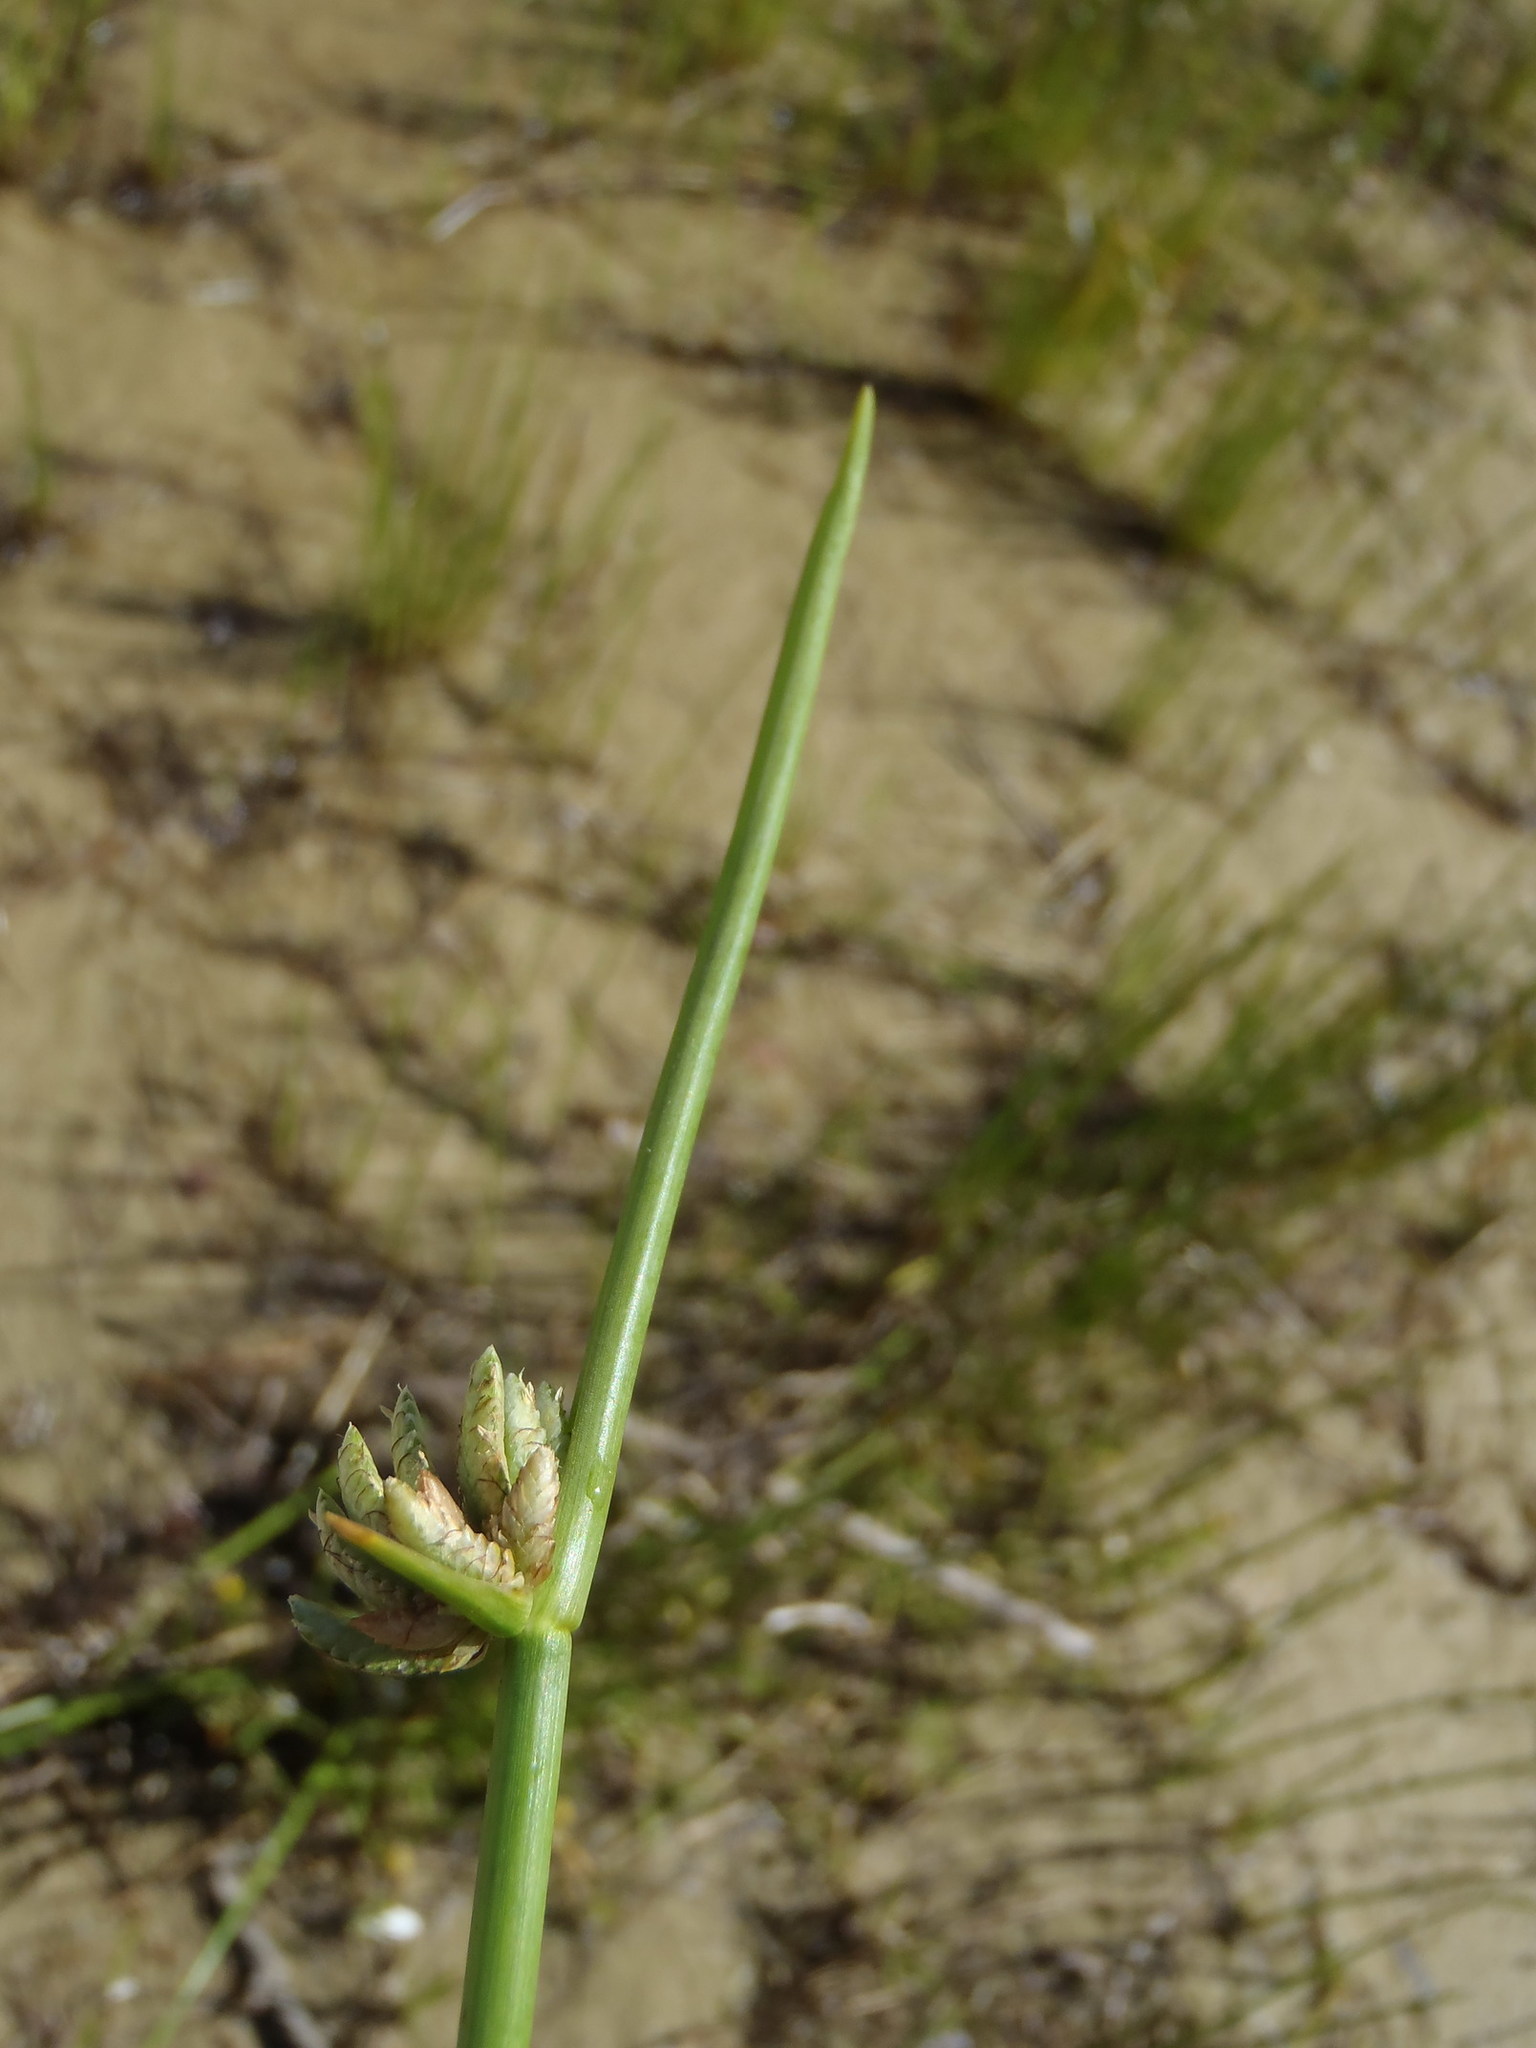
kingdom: Plantae
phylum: Tracheophyta
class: Liliopsida
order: Poales
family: Cyperaceae
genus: Cyperus
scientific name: Cyperus laevigatus
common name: Smooth flat sedge
